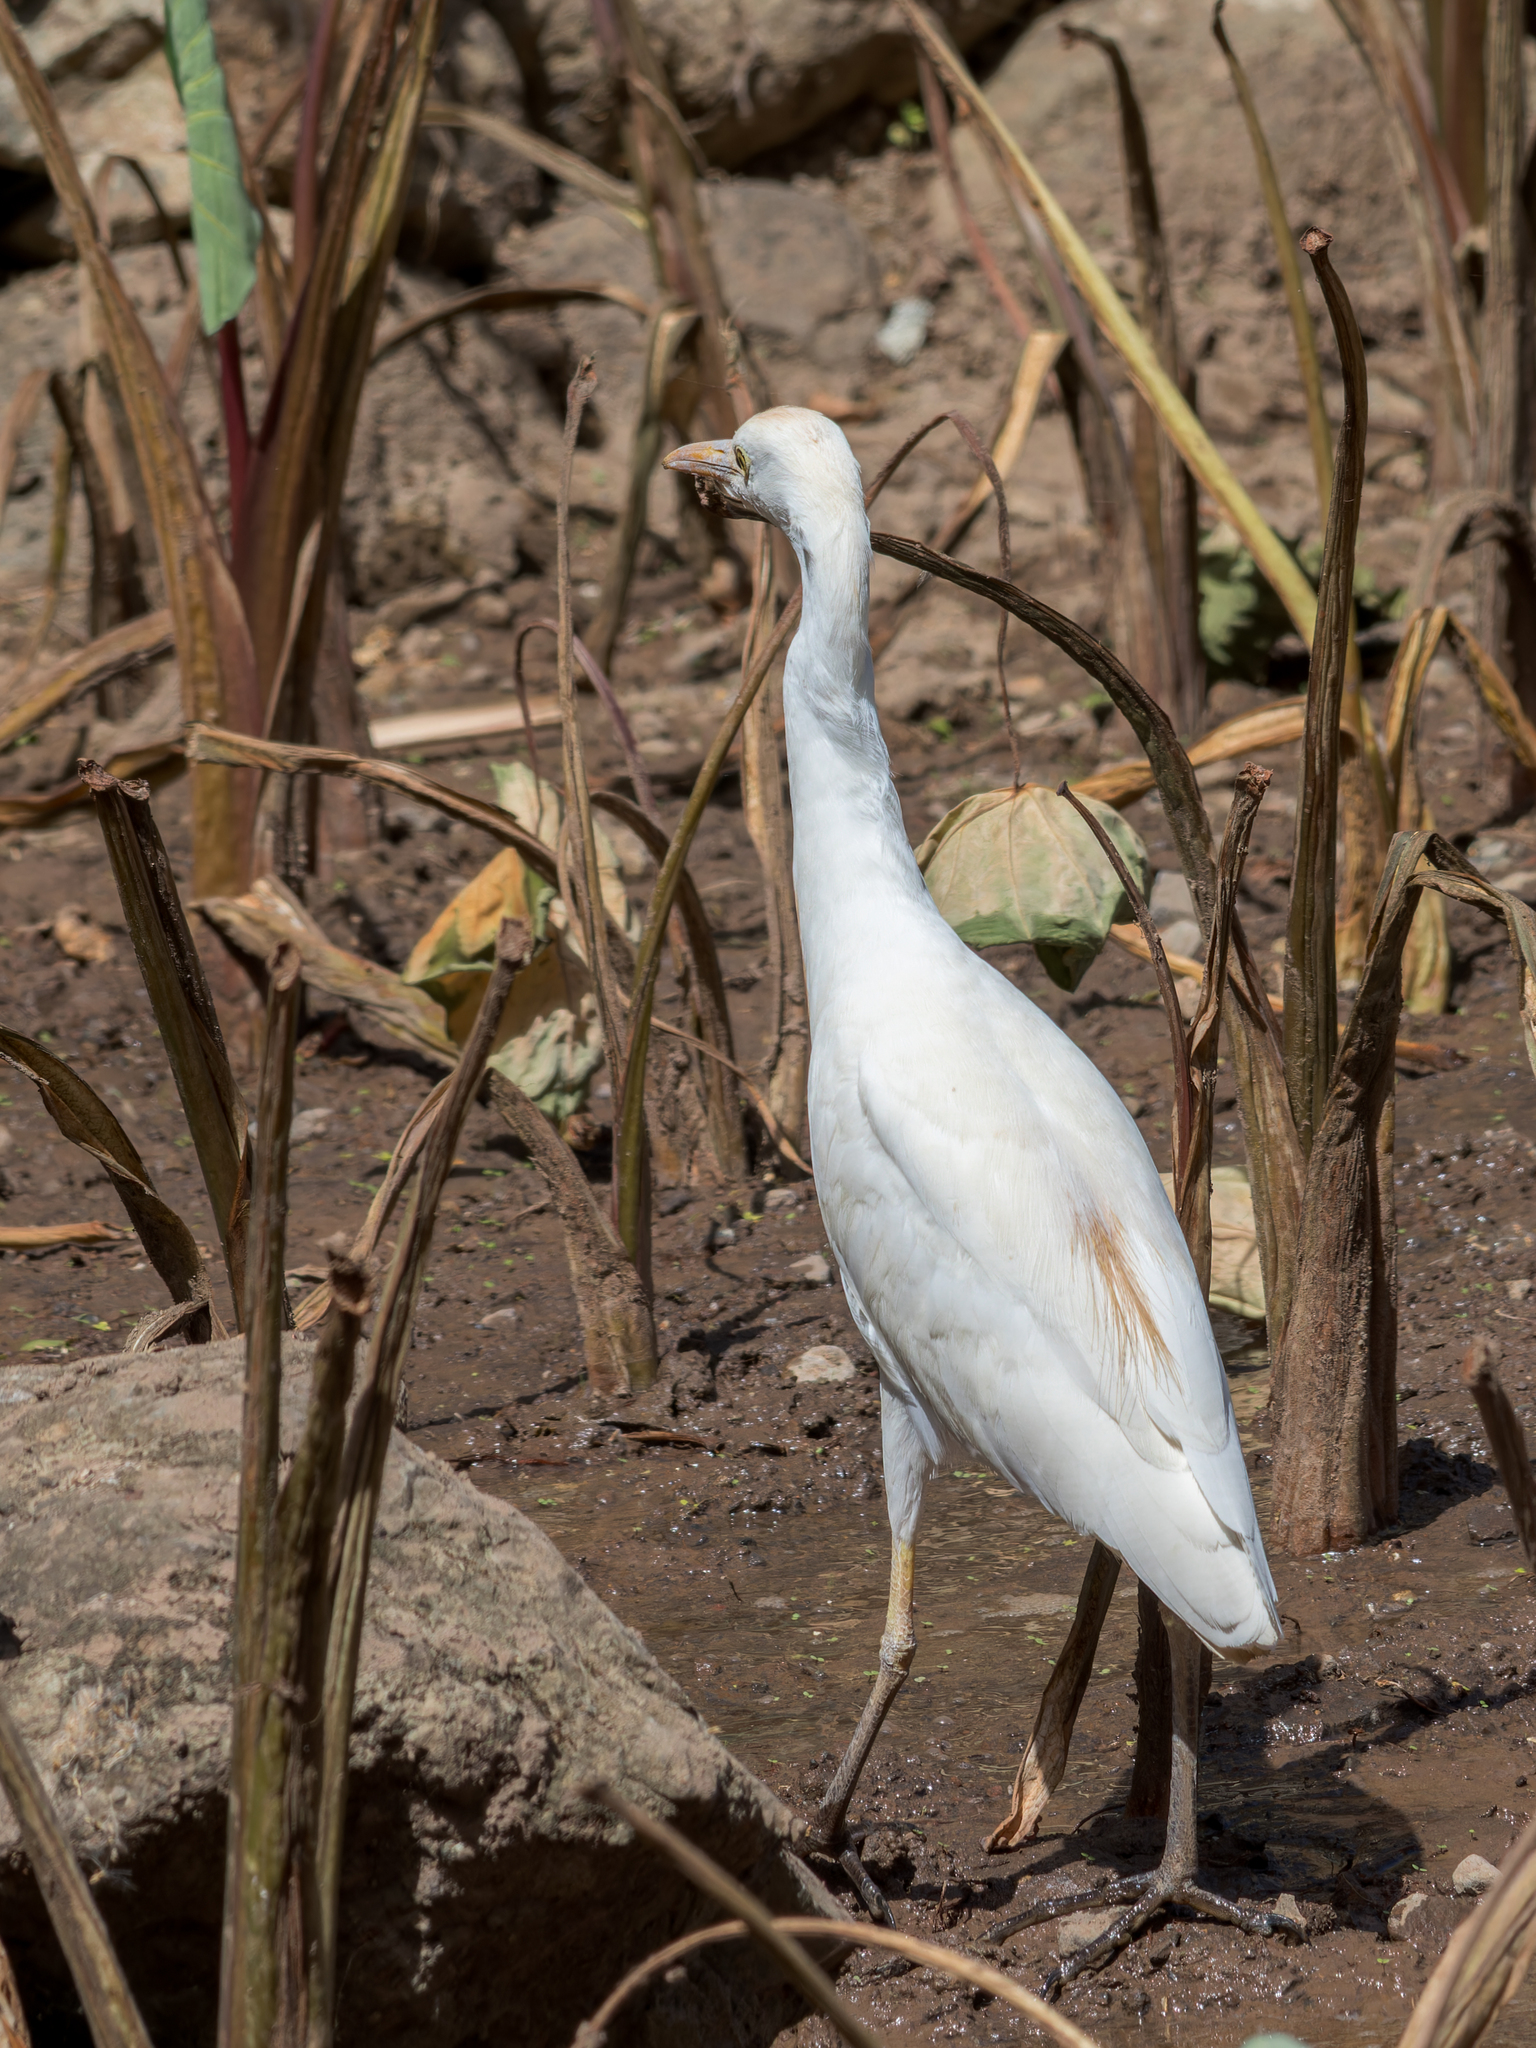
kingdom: Animalia
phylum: Chordata
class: Aves
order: Pelecaniformes
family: Ardeidae
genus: Bubulcus
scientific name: Bubulcus ibis
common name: Cattle egret
